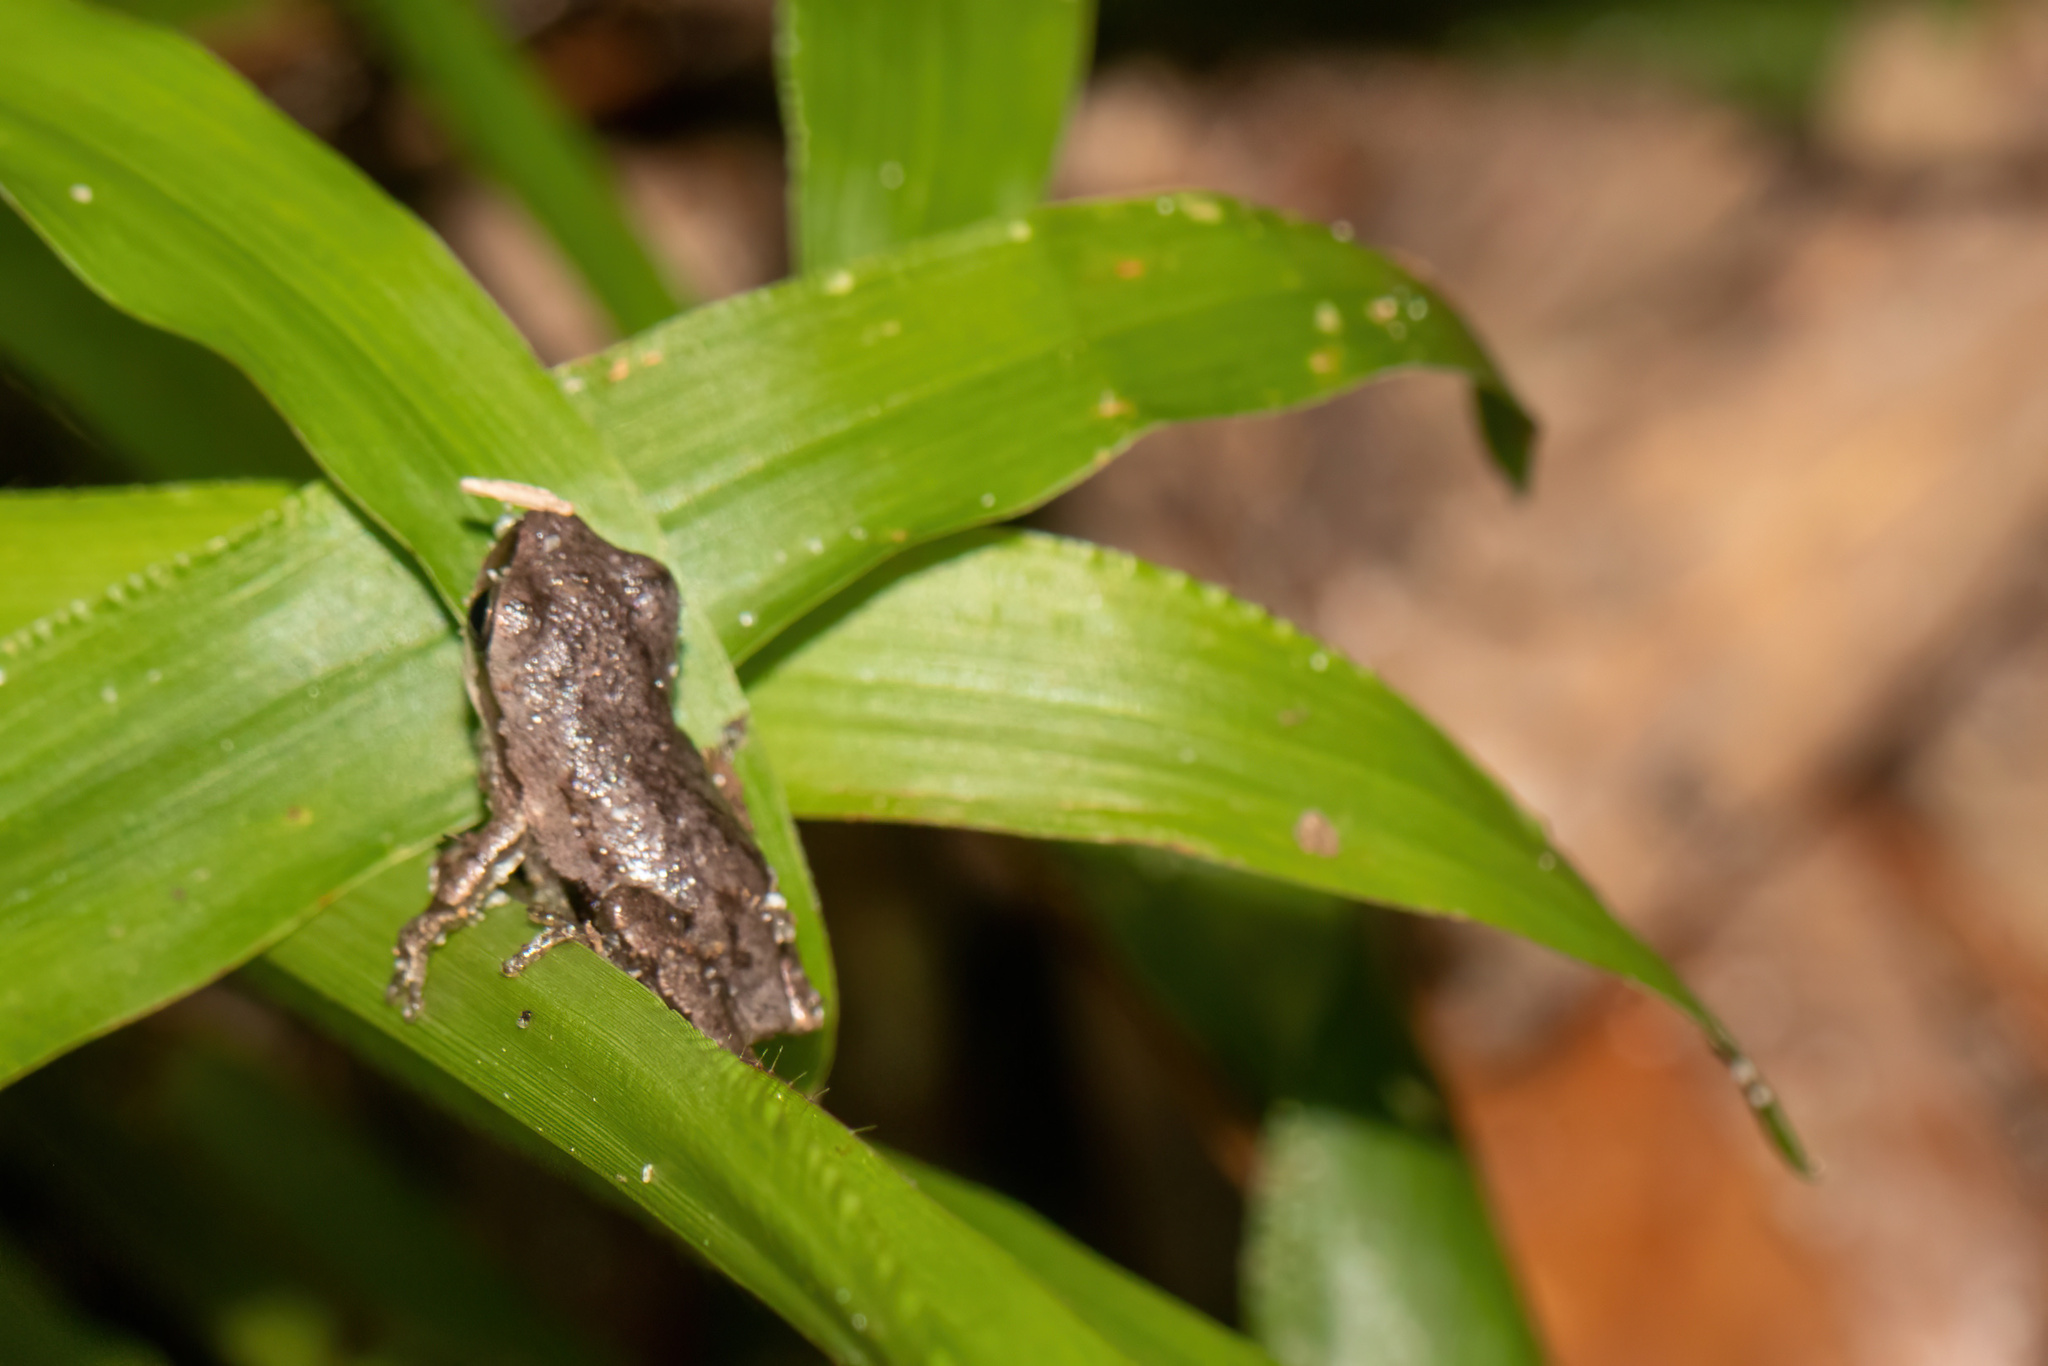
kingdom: Animalia
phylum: Chordata
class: Amphibia
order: Anura
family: Hylidae
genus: Hyla
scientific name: Hyla femoralis
